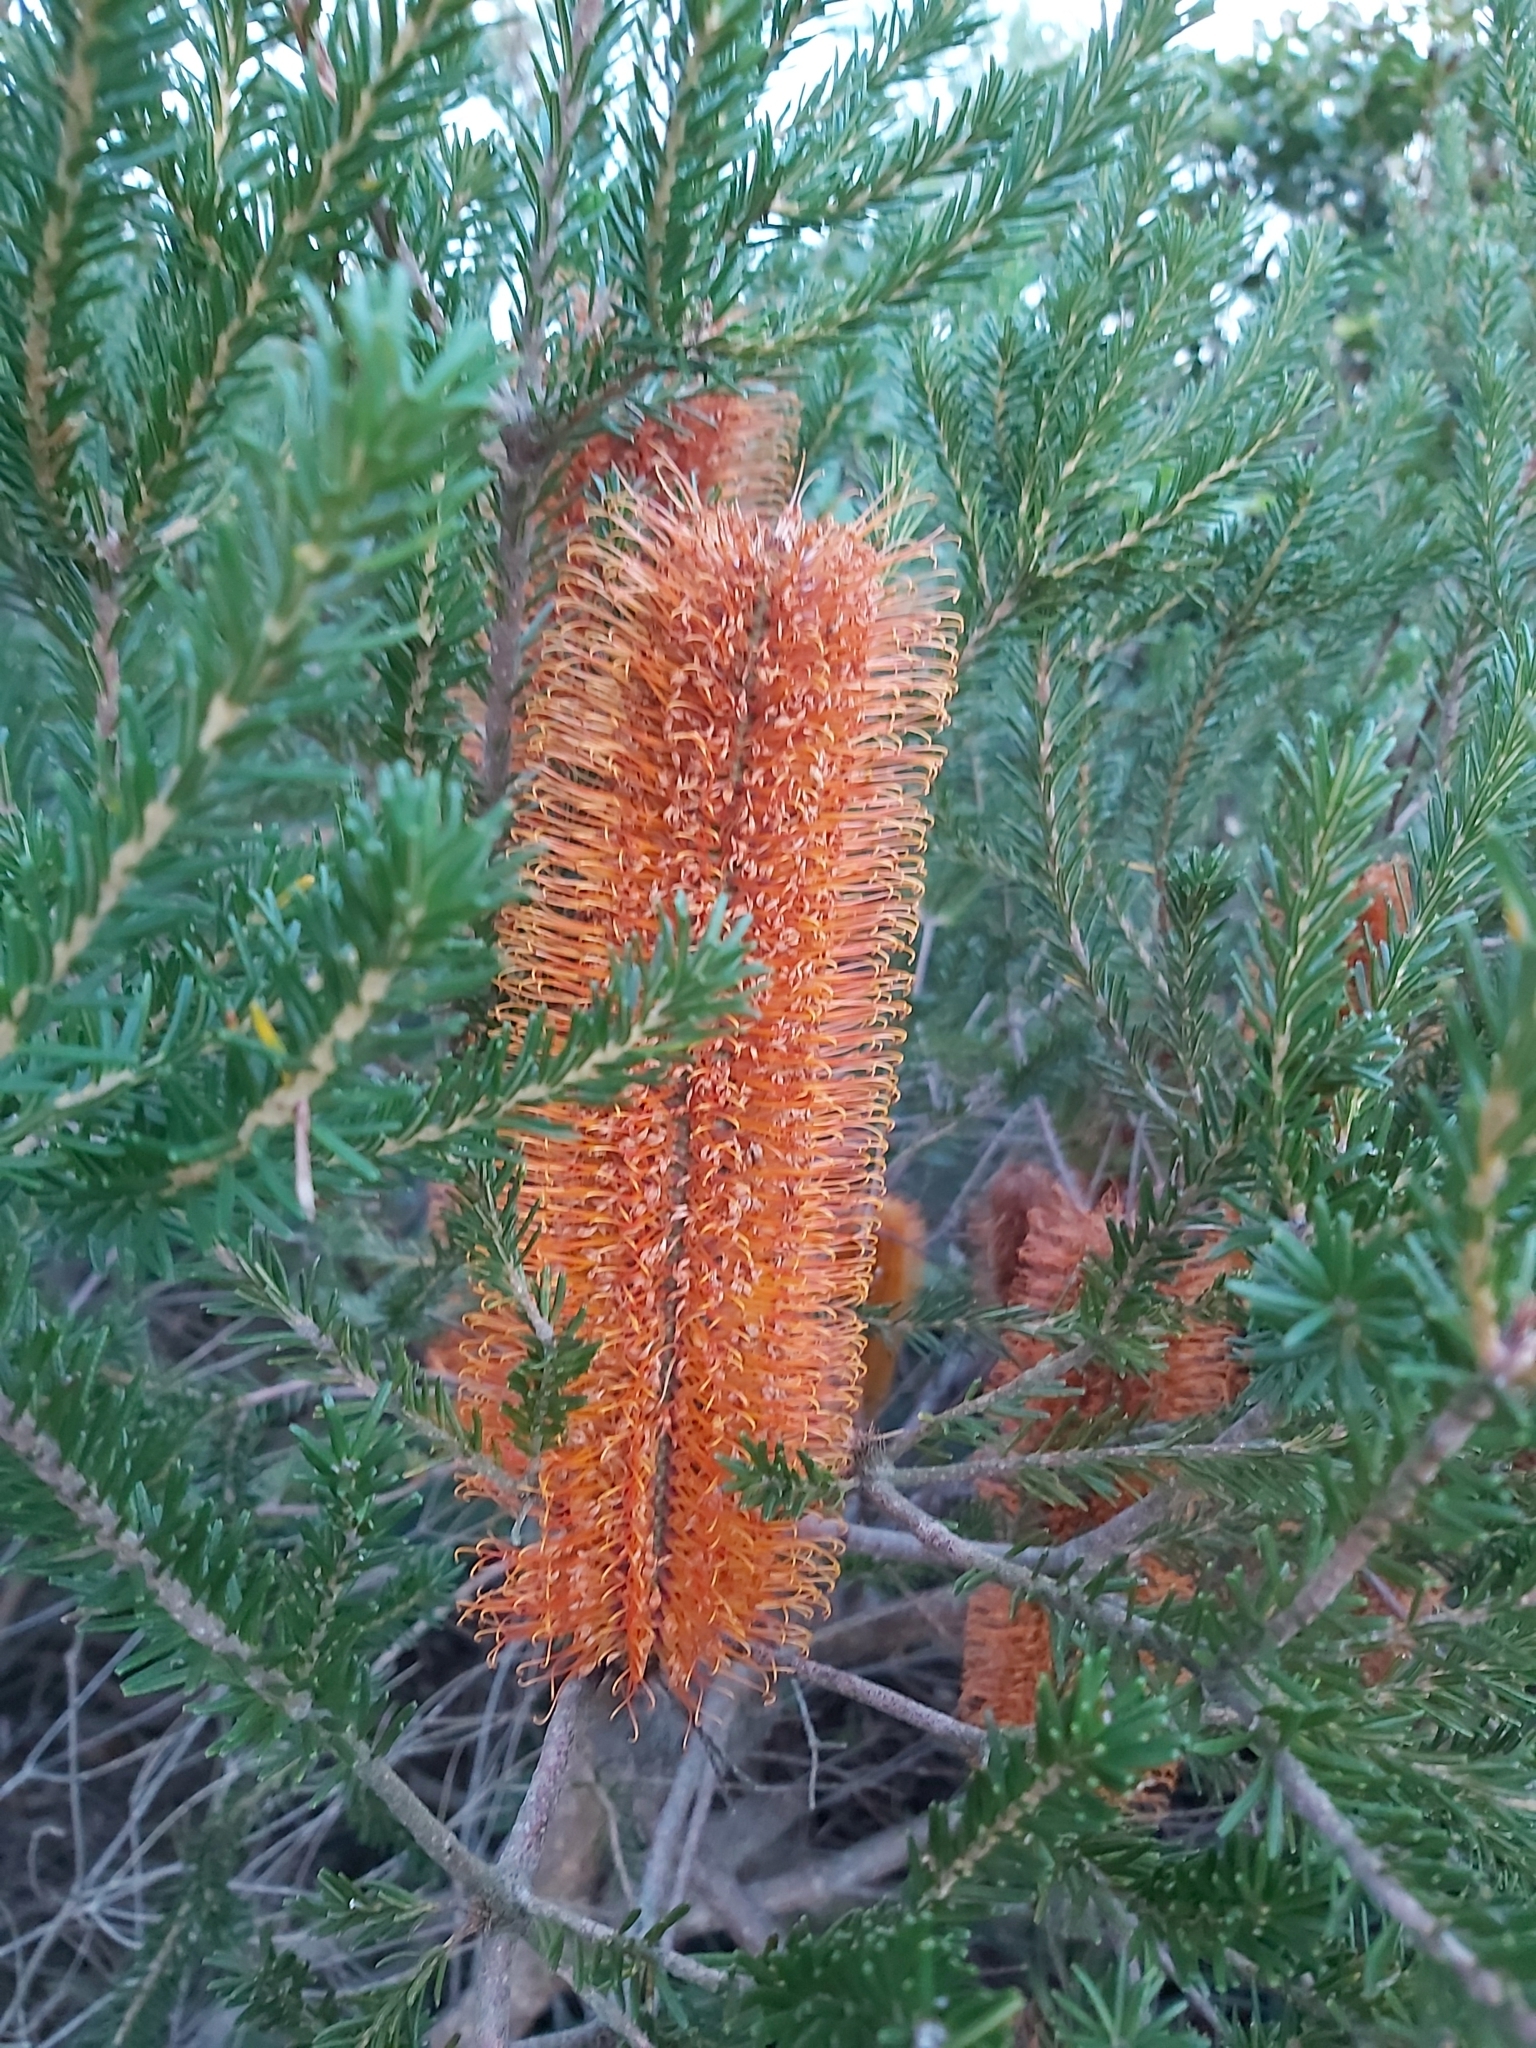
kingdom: Plantae
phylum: Tracheophyta
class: Magnoliopsida
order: Proteales
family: Proteaceae
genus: Banksia
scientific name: Banksia ericifolia
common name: Heath-leaf banksia
